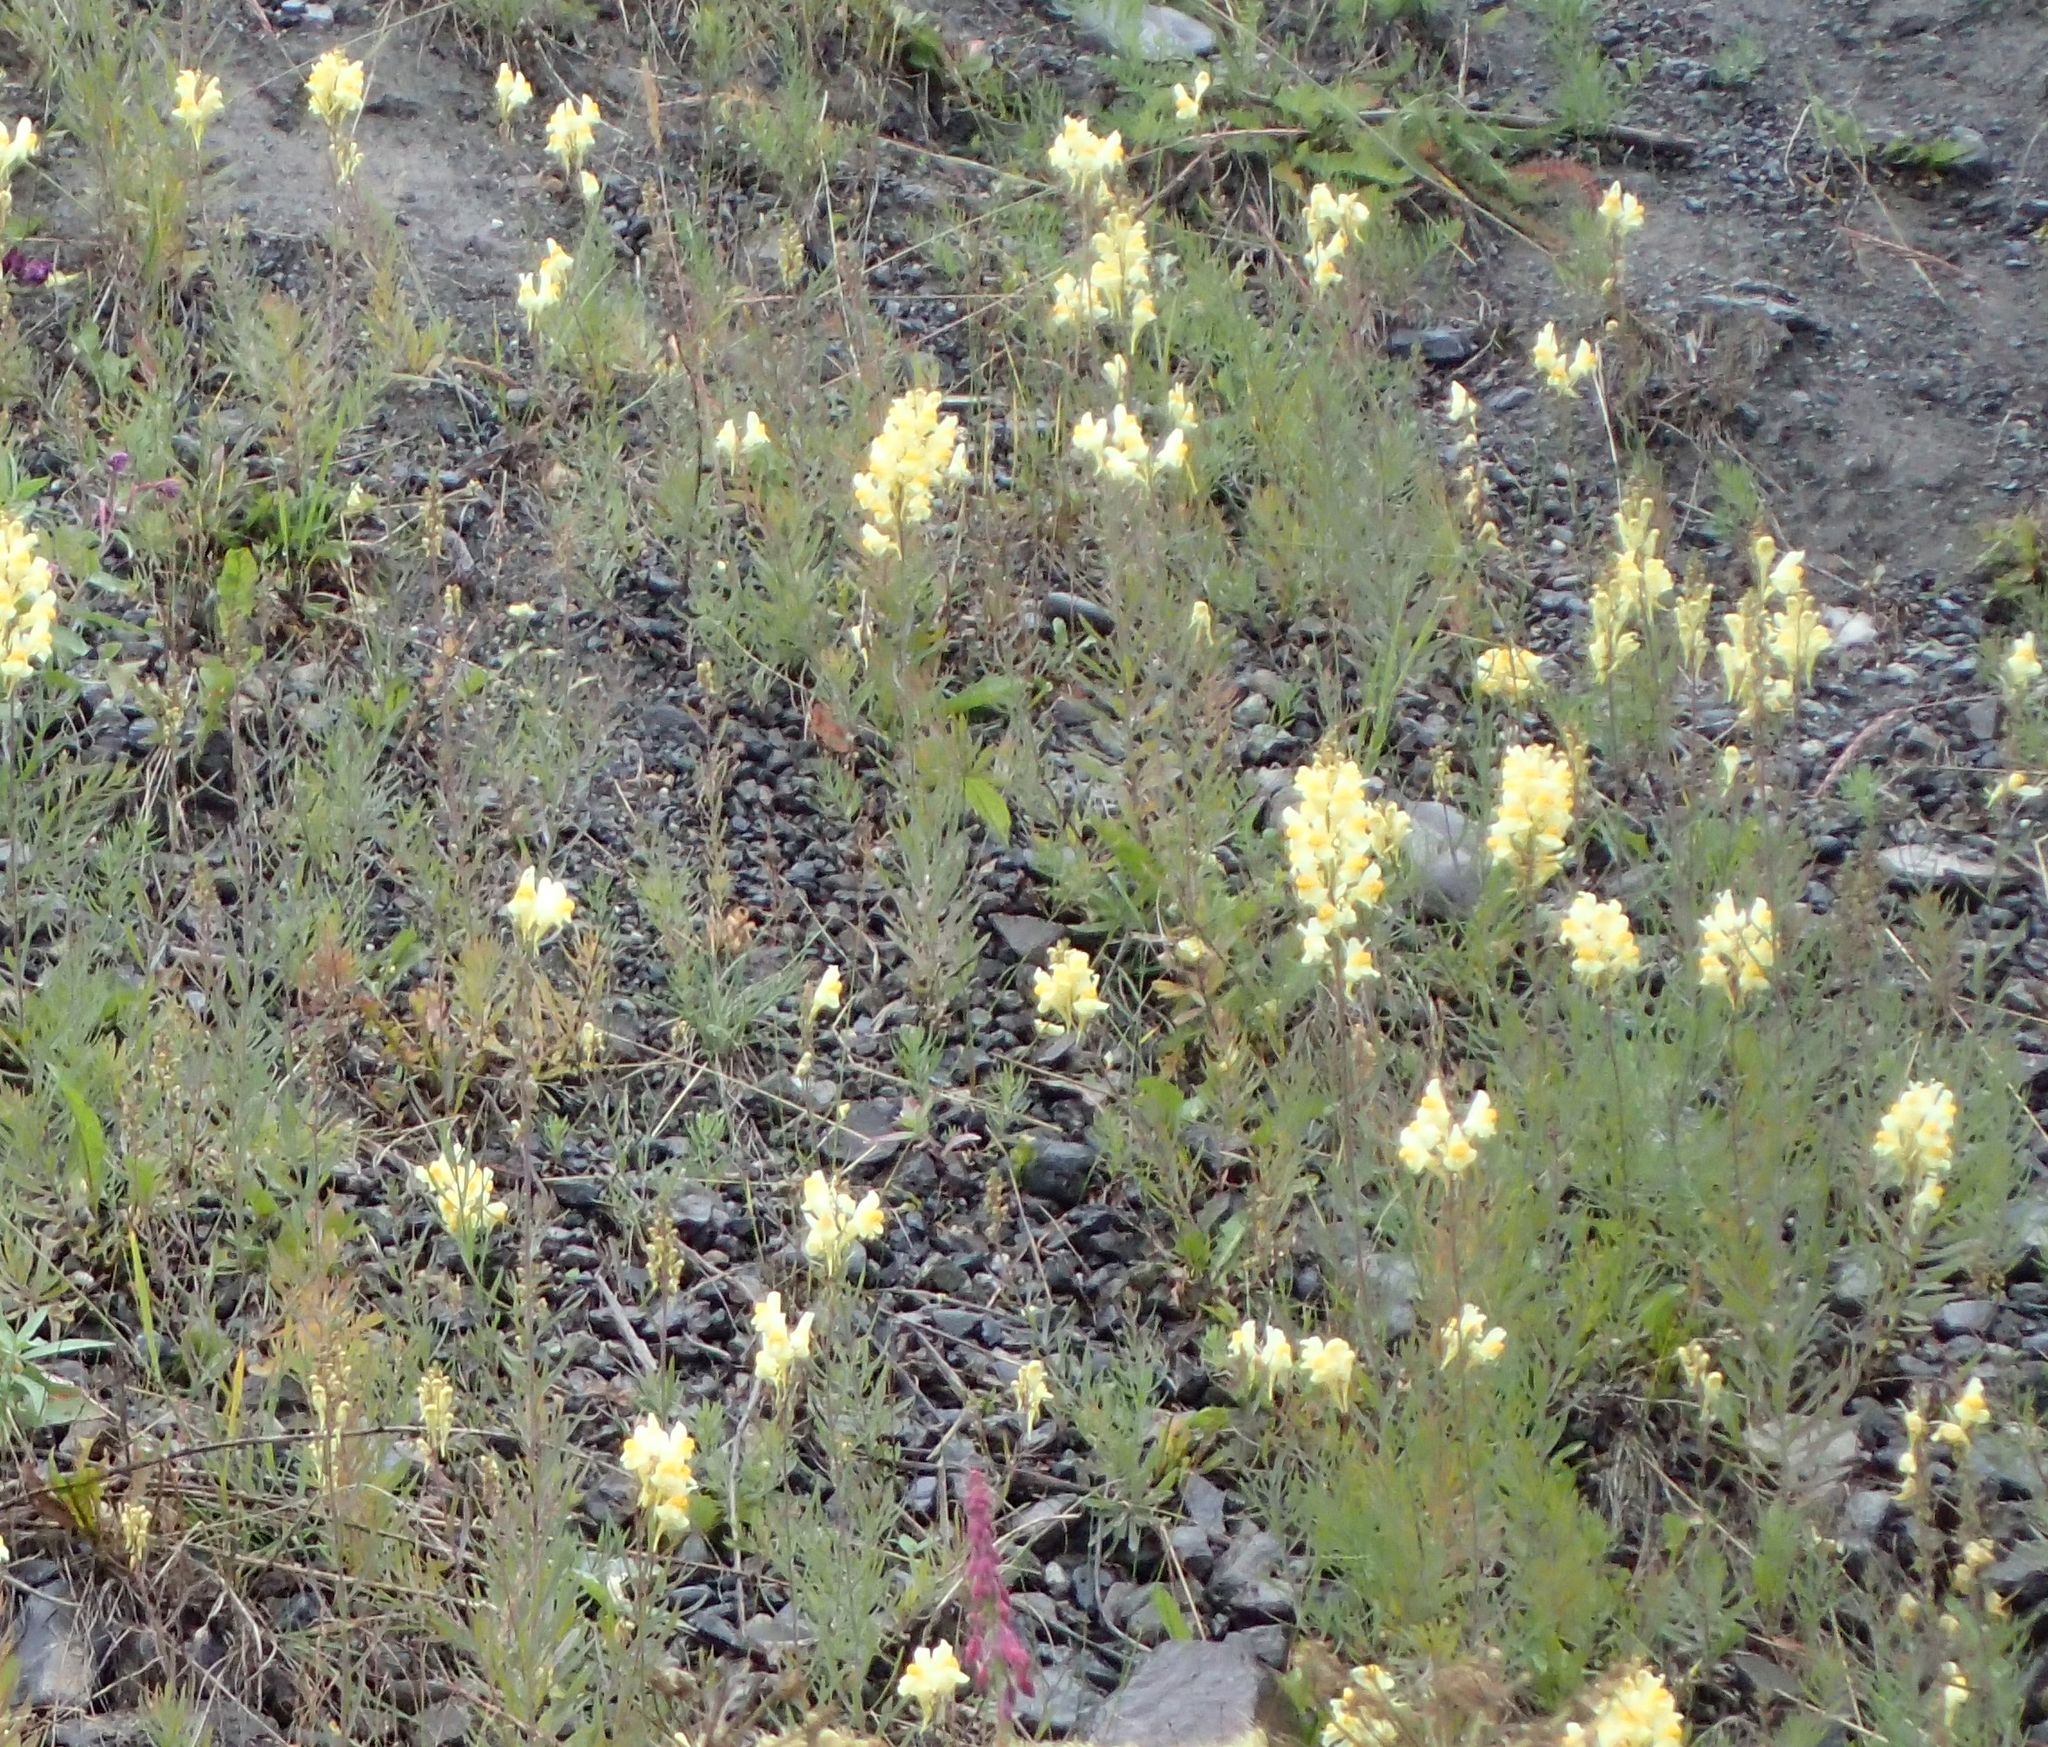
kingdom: Plantae
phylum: Tracheophyta
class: Magnoliopsida
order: Lamiales
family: Plantaginaceae
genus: Linaria
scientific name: Linaria vulgaris
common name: Butter and eggs
